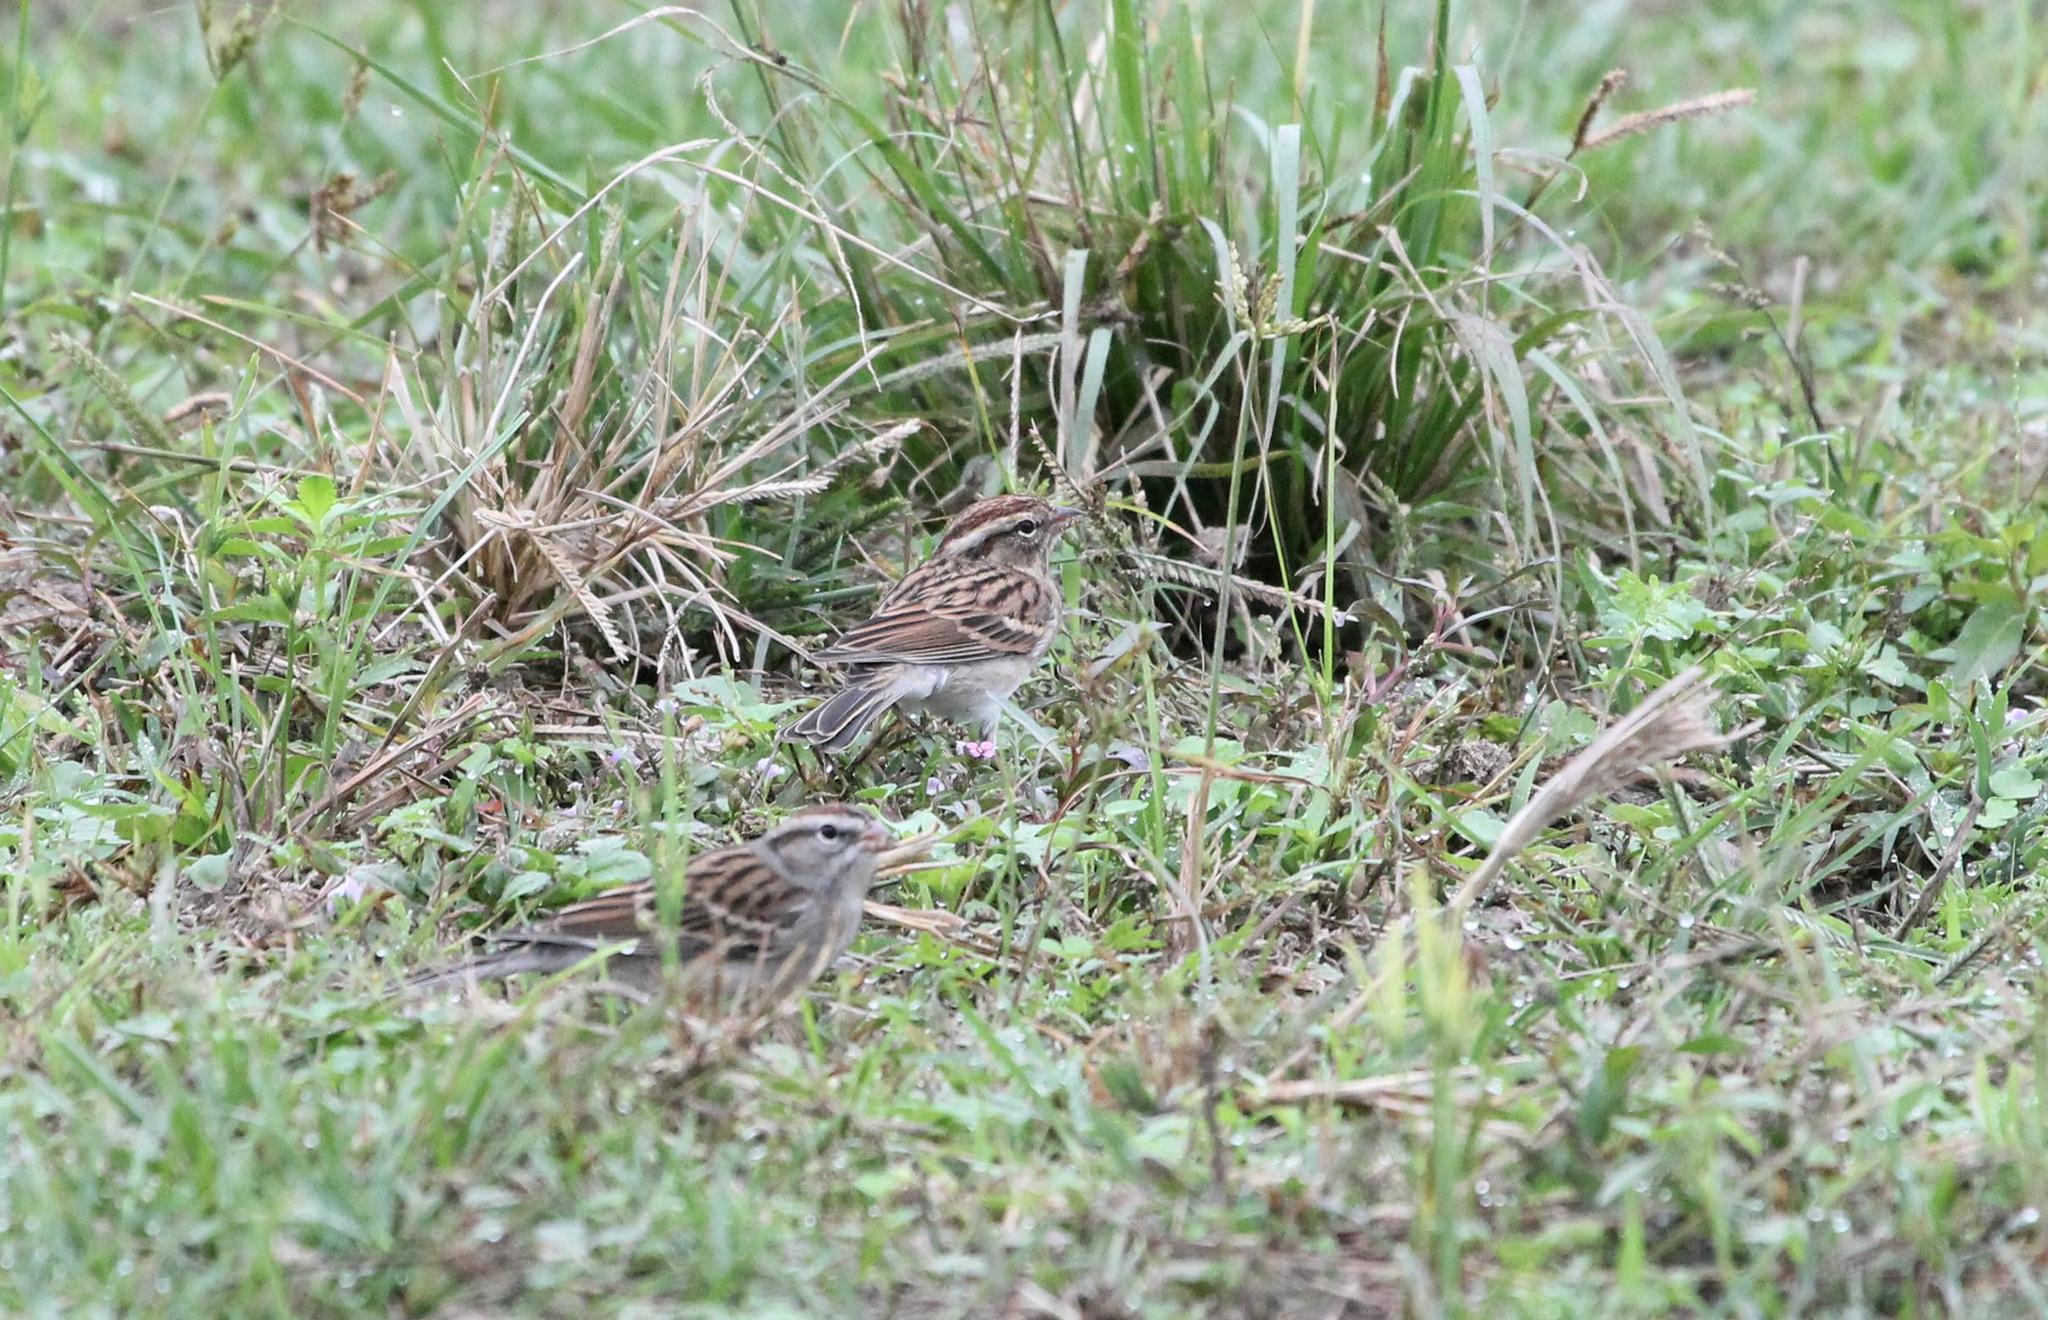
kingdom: Animalia
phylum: Chordata
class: Aves
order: Passeriformes
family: Passerellidae
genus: Spizella
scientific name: Spizella passerina
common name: Chipping sparrow
